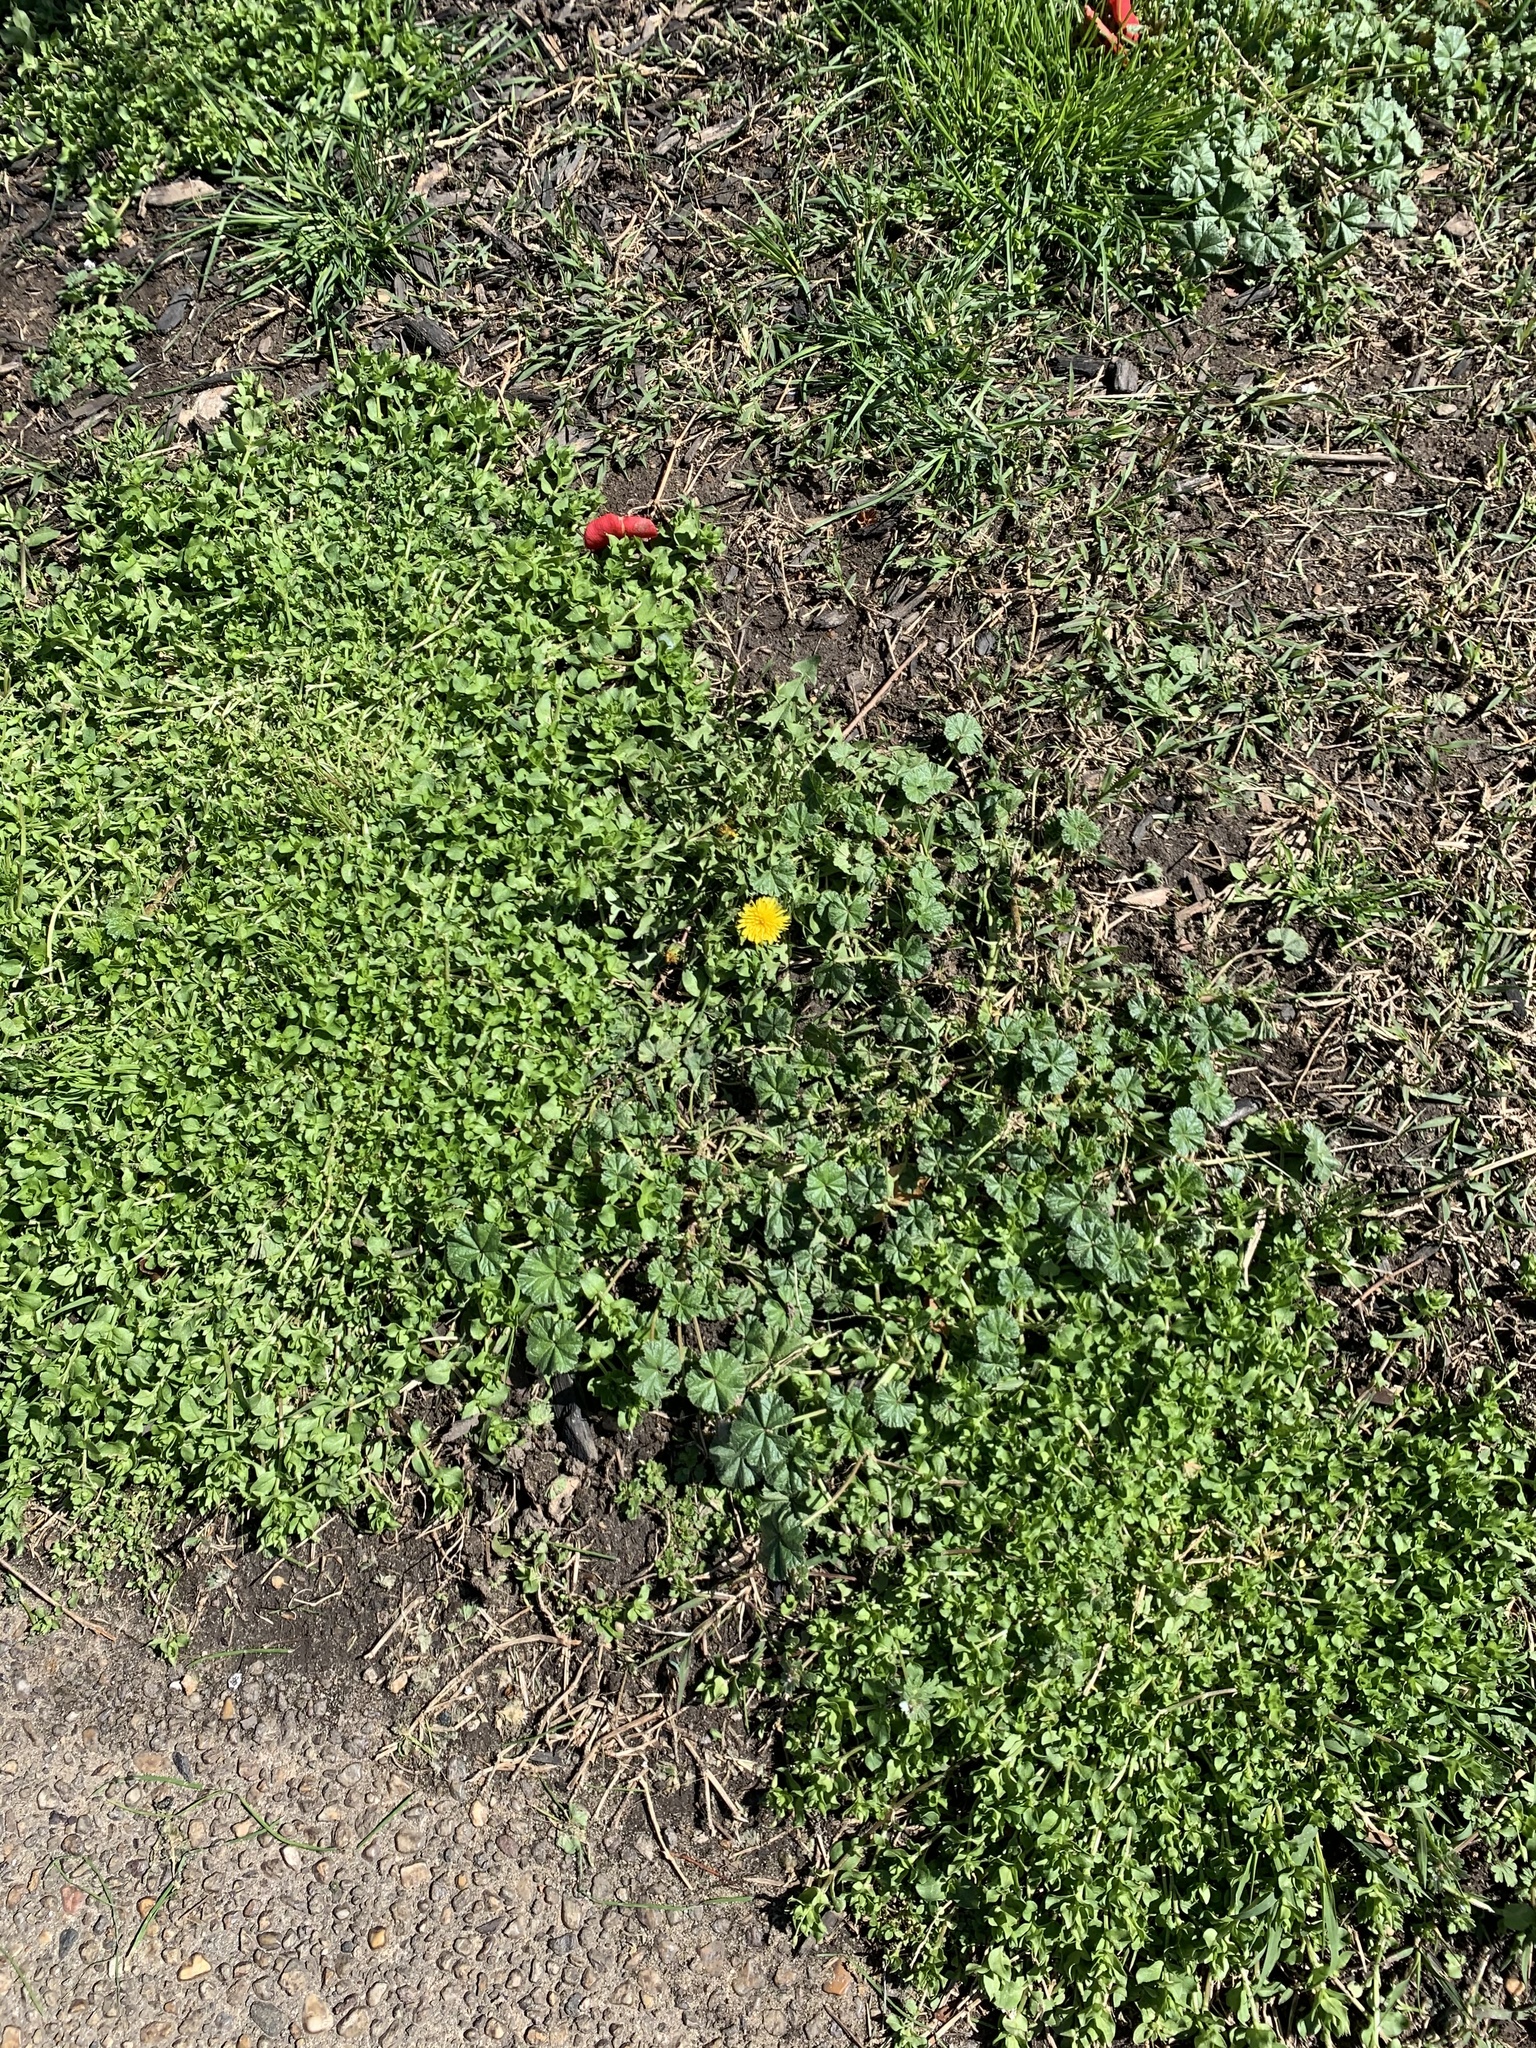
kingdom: Plantae
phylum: Tracheophyta
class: Magnoliopsida
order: Malvales
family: Malvaceae
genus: Malva
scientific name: Malva neglecta
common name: Common mallow
